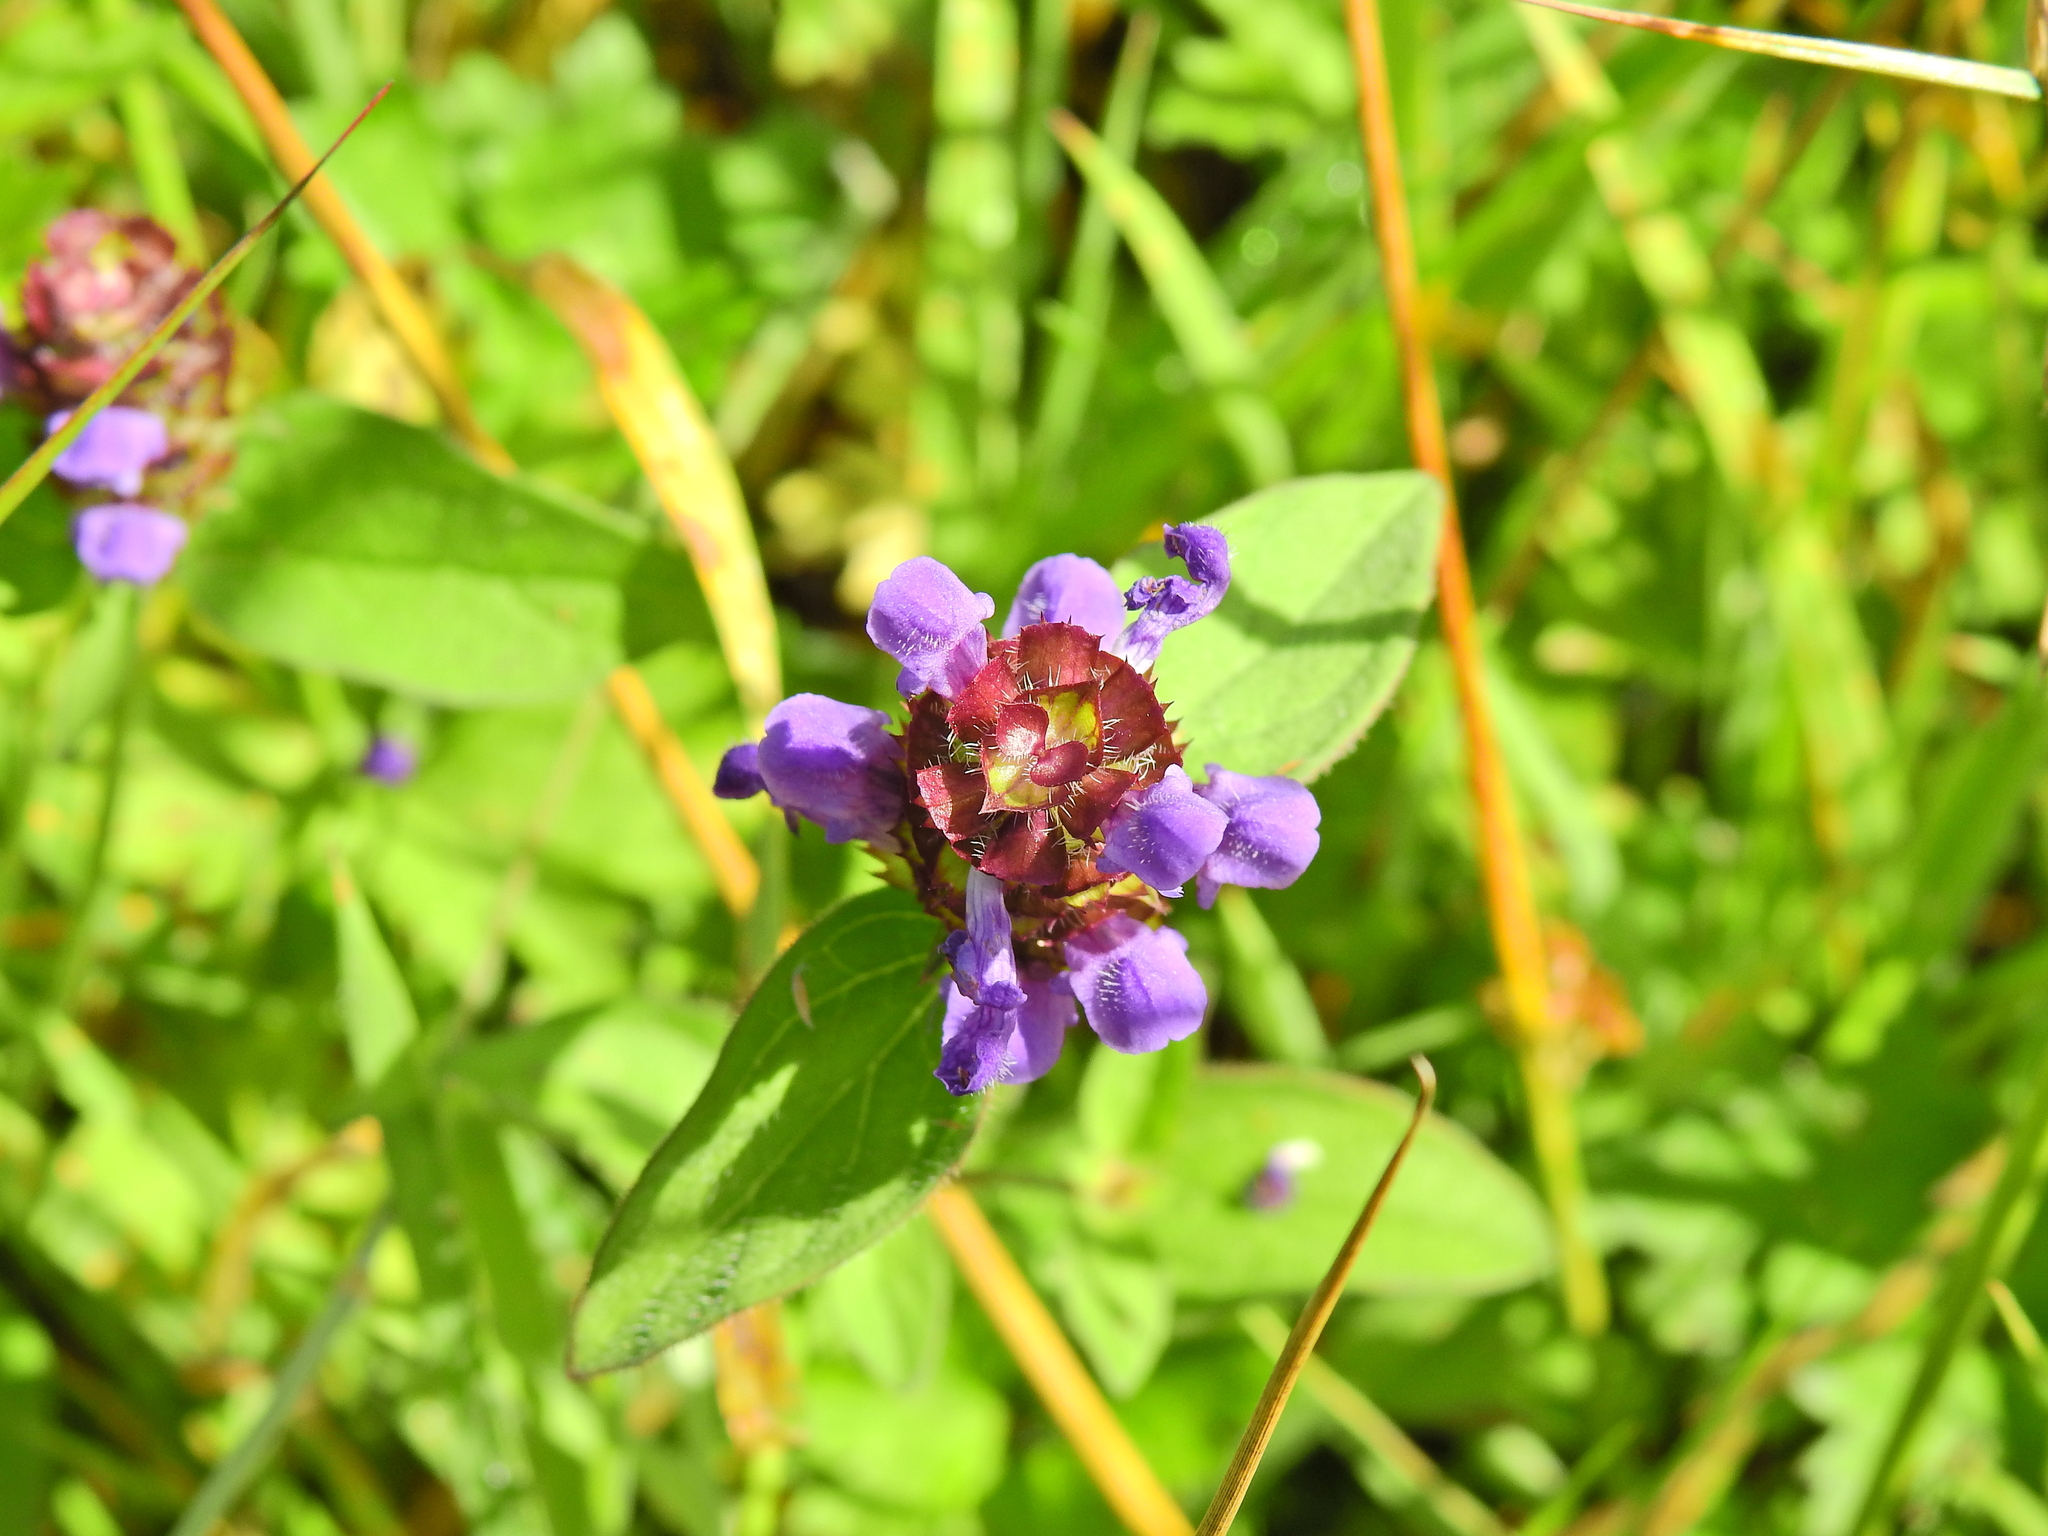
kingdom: Plantae
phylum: Tracheophyta
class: Magnoliopsida
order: Lamiales
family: Lamiaceae
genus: Prunella
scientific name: Prunella vulgaris
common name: Heal-all
